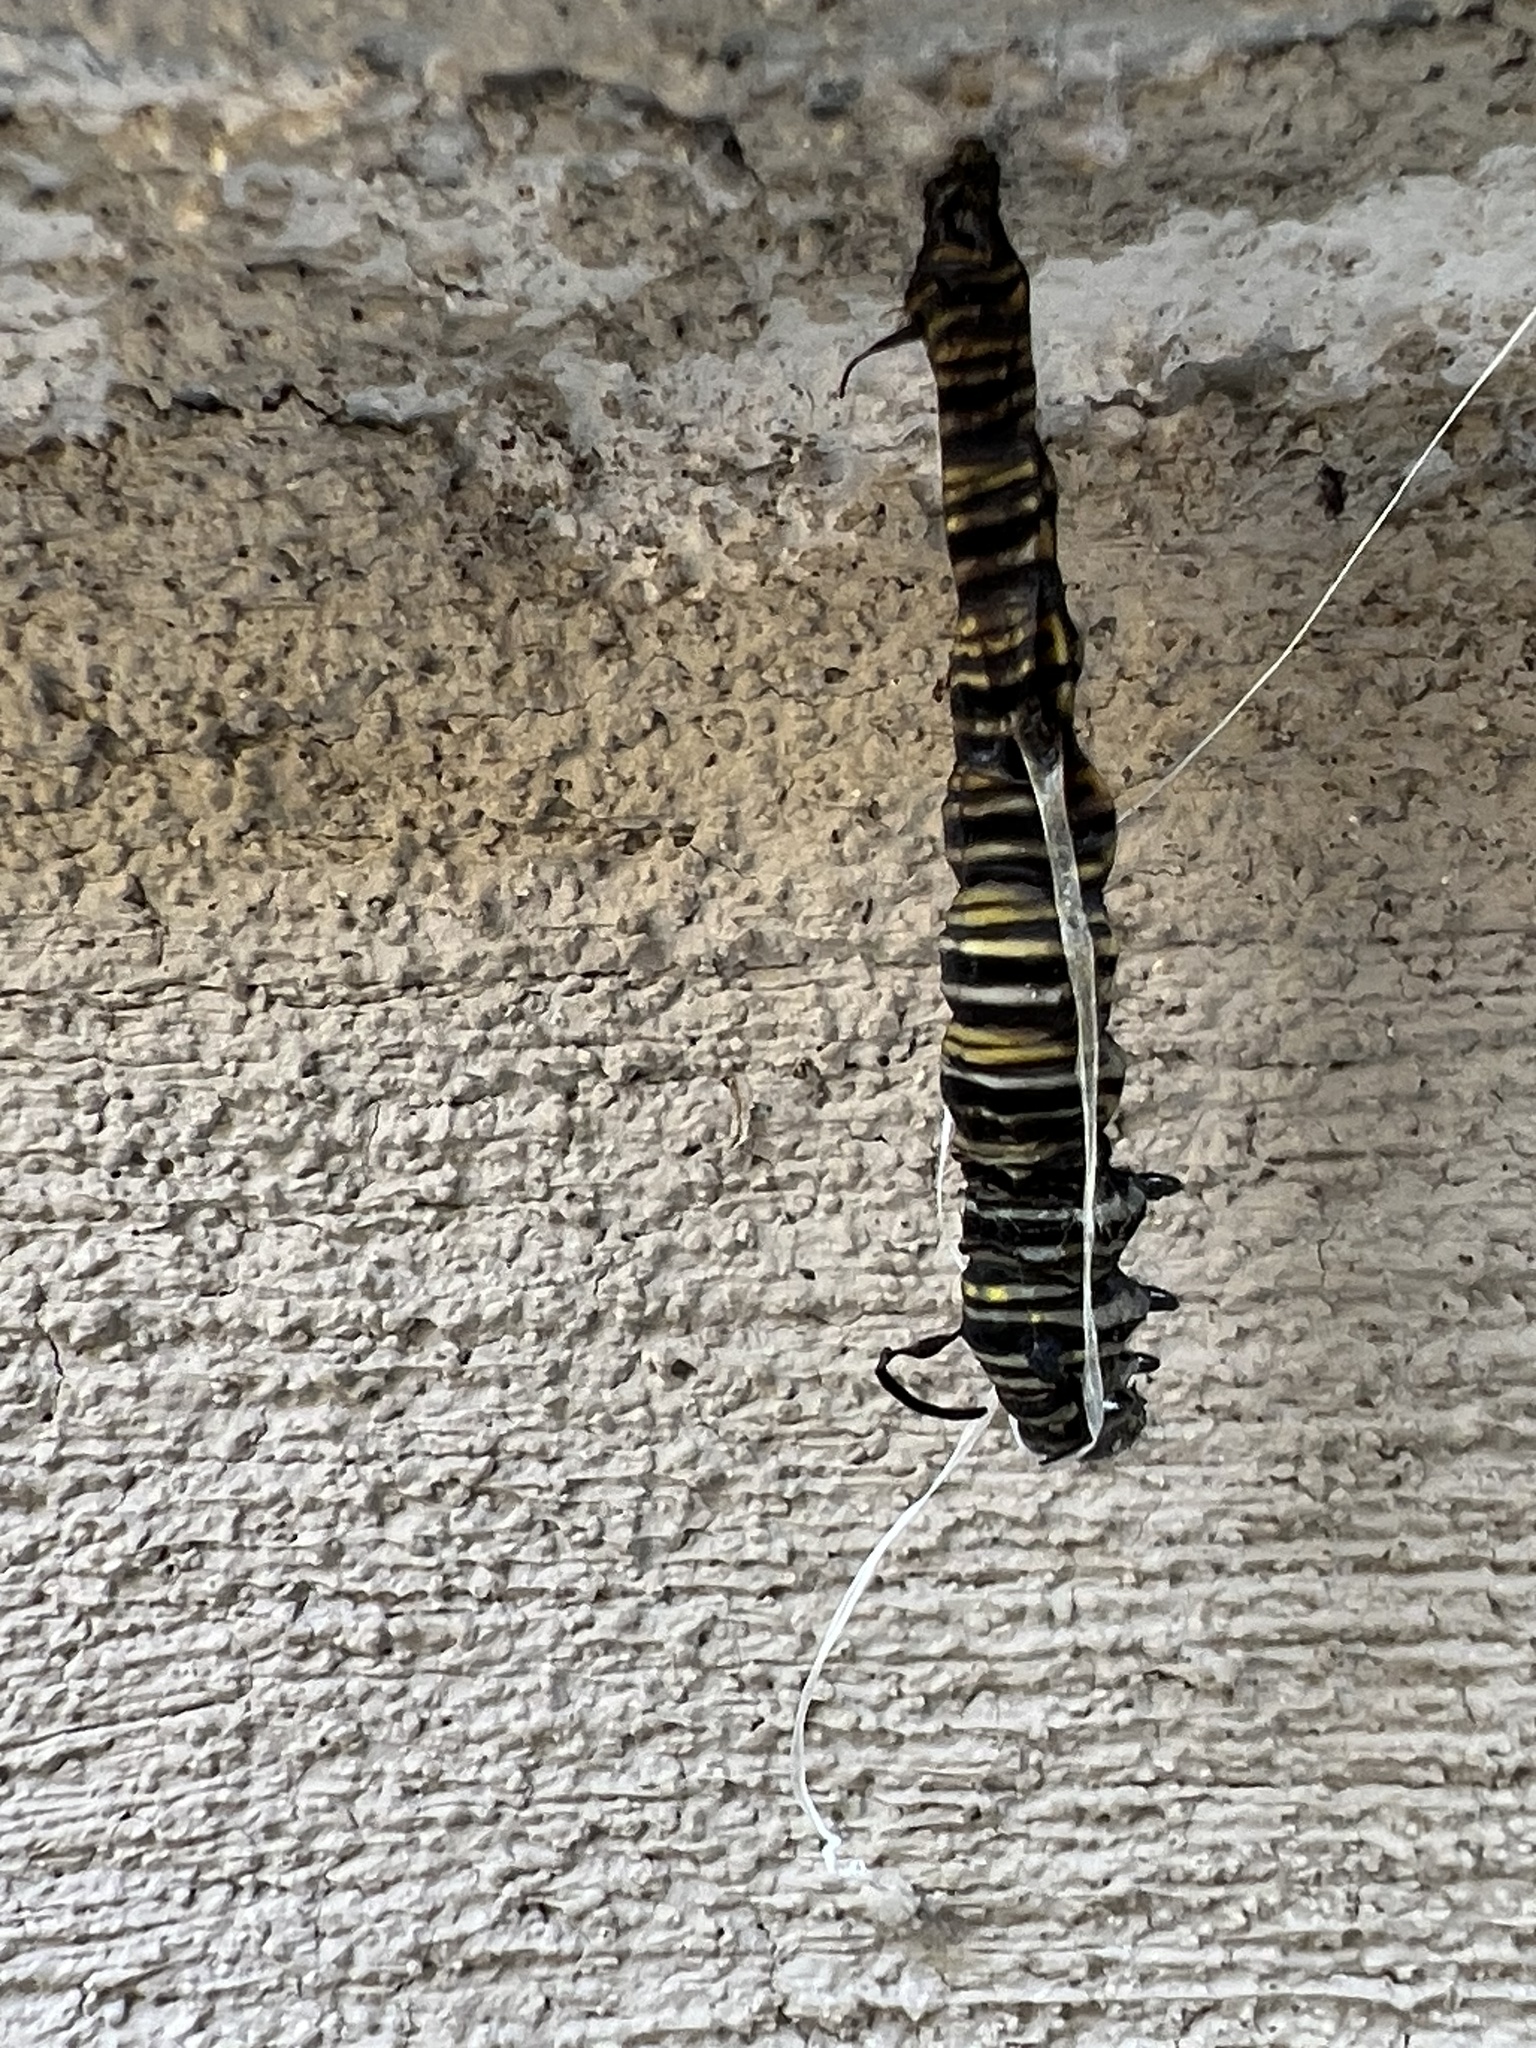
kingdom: Animalia
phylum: Arthropoda
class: Insecta
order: Lepidoptera
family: Nymphalidae
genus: Danaus
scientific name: Danaus plexippus
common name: Monarch
